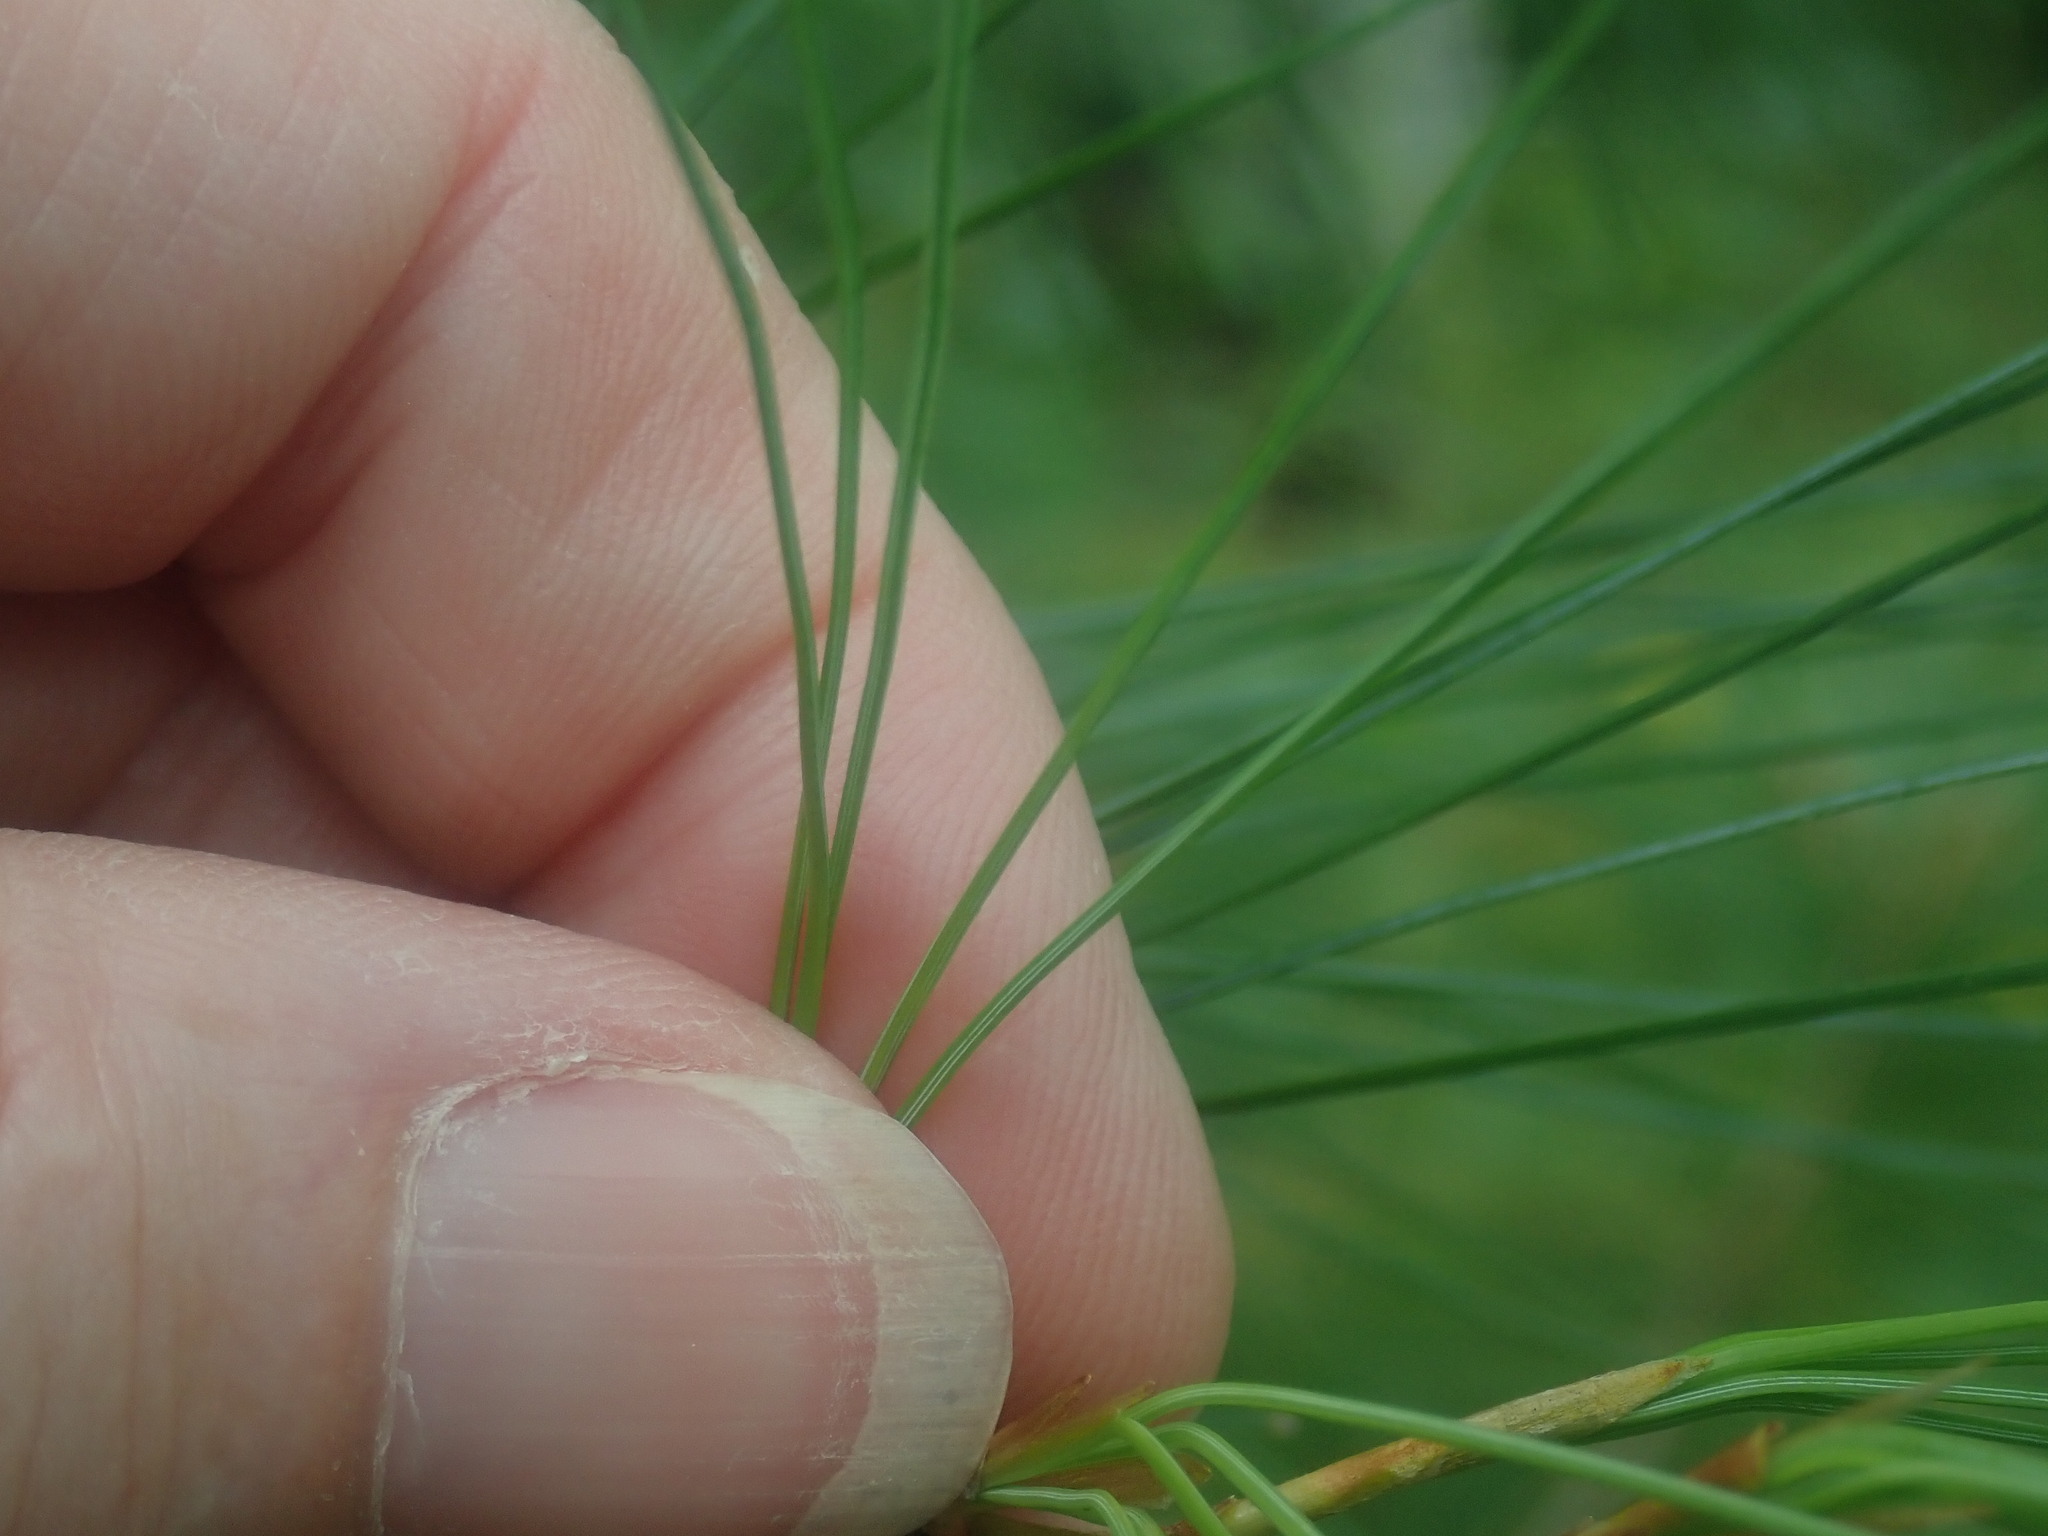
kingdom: Plantae
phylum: Tracheophyta
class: Pinopsida
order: Pinales
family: Pinaceae
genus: Pinus
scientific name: Pinus strobus
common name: Weymouth pine
